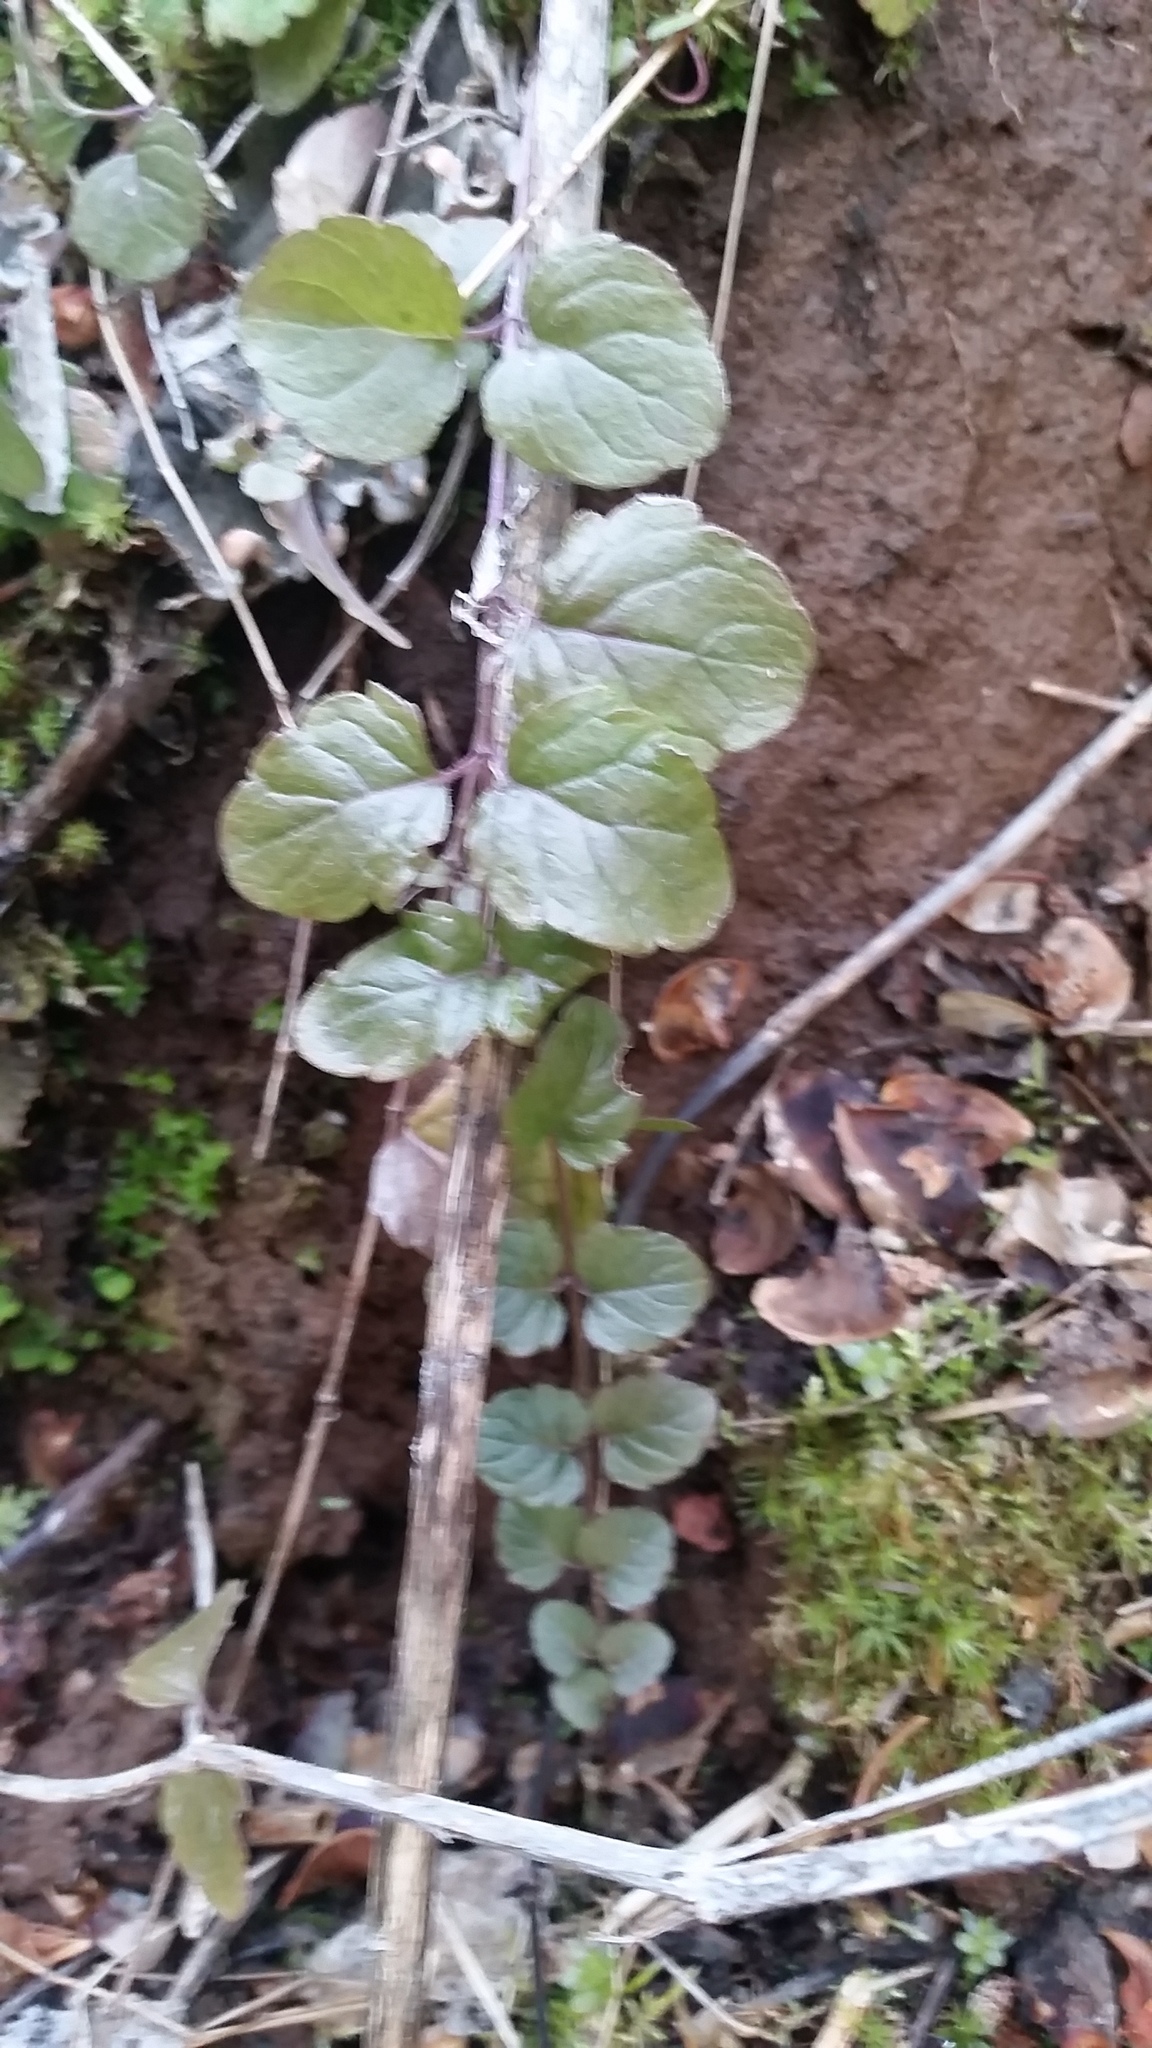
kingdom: Plantae
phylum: Tracheophyta
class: Magnoliopsida
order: Lamiales
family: Lamiaceae
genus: Micromeria
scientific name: Micromeria douglasii
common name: Yerba buena
